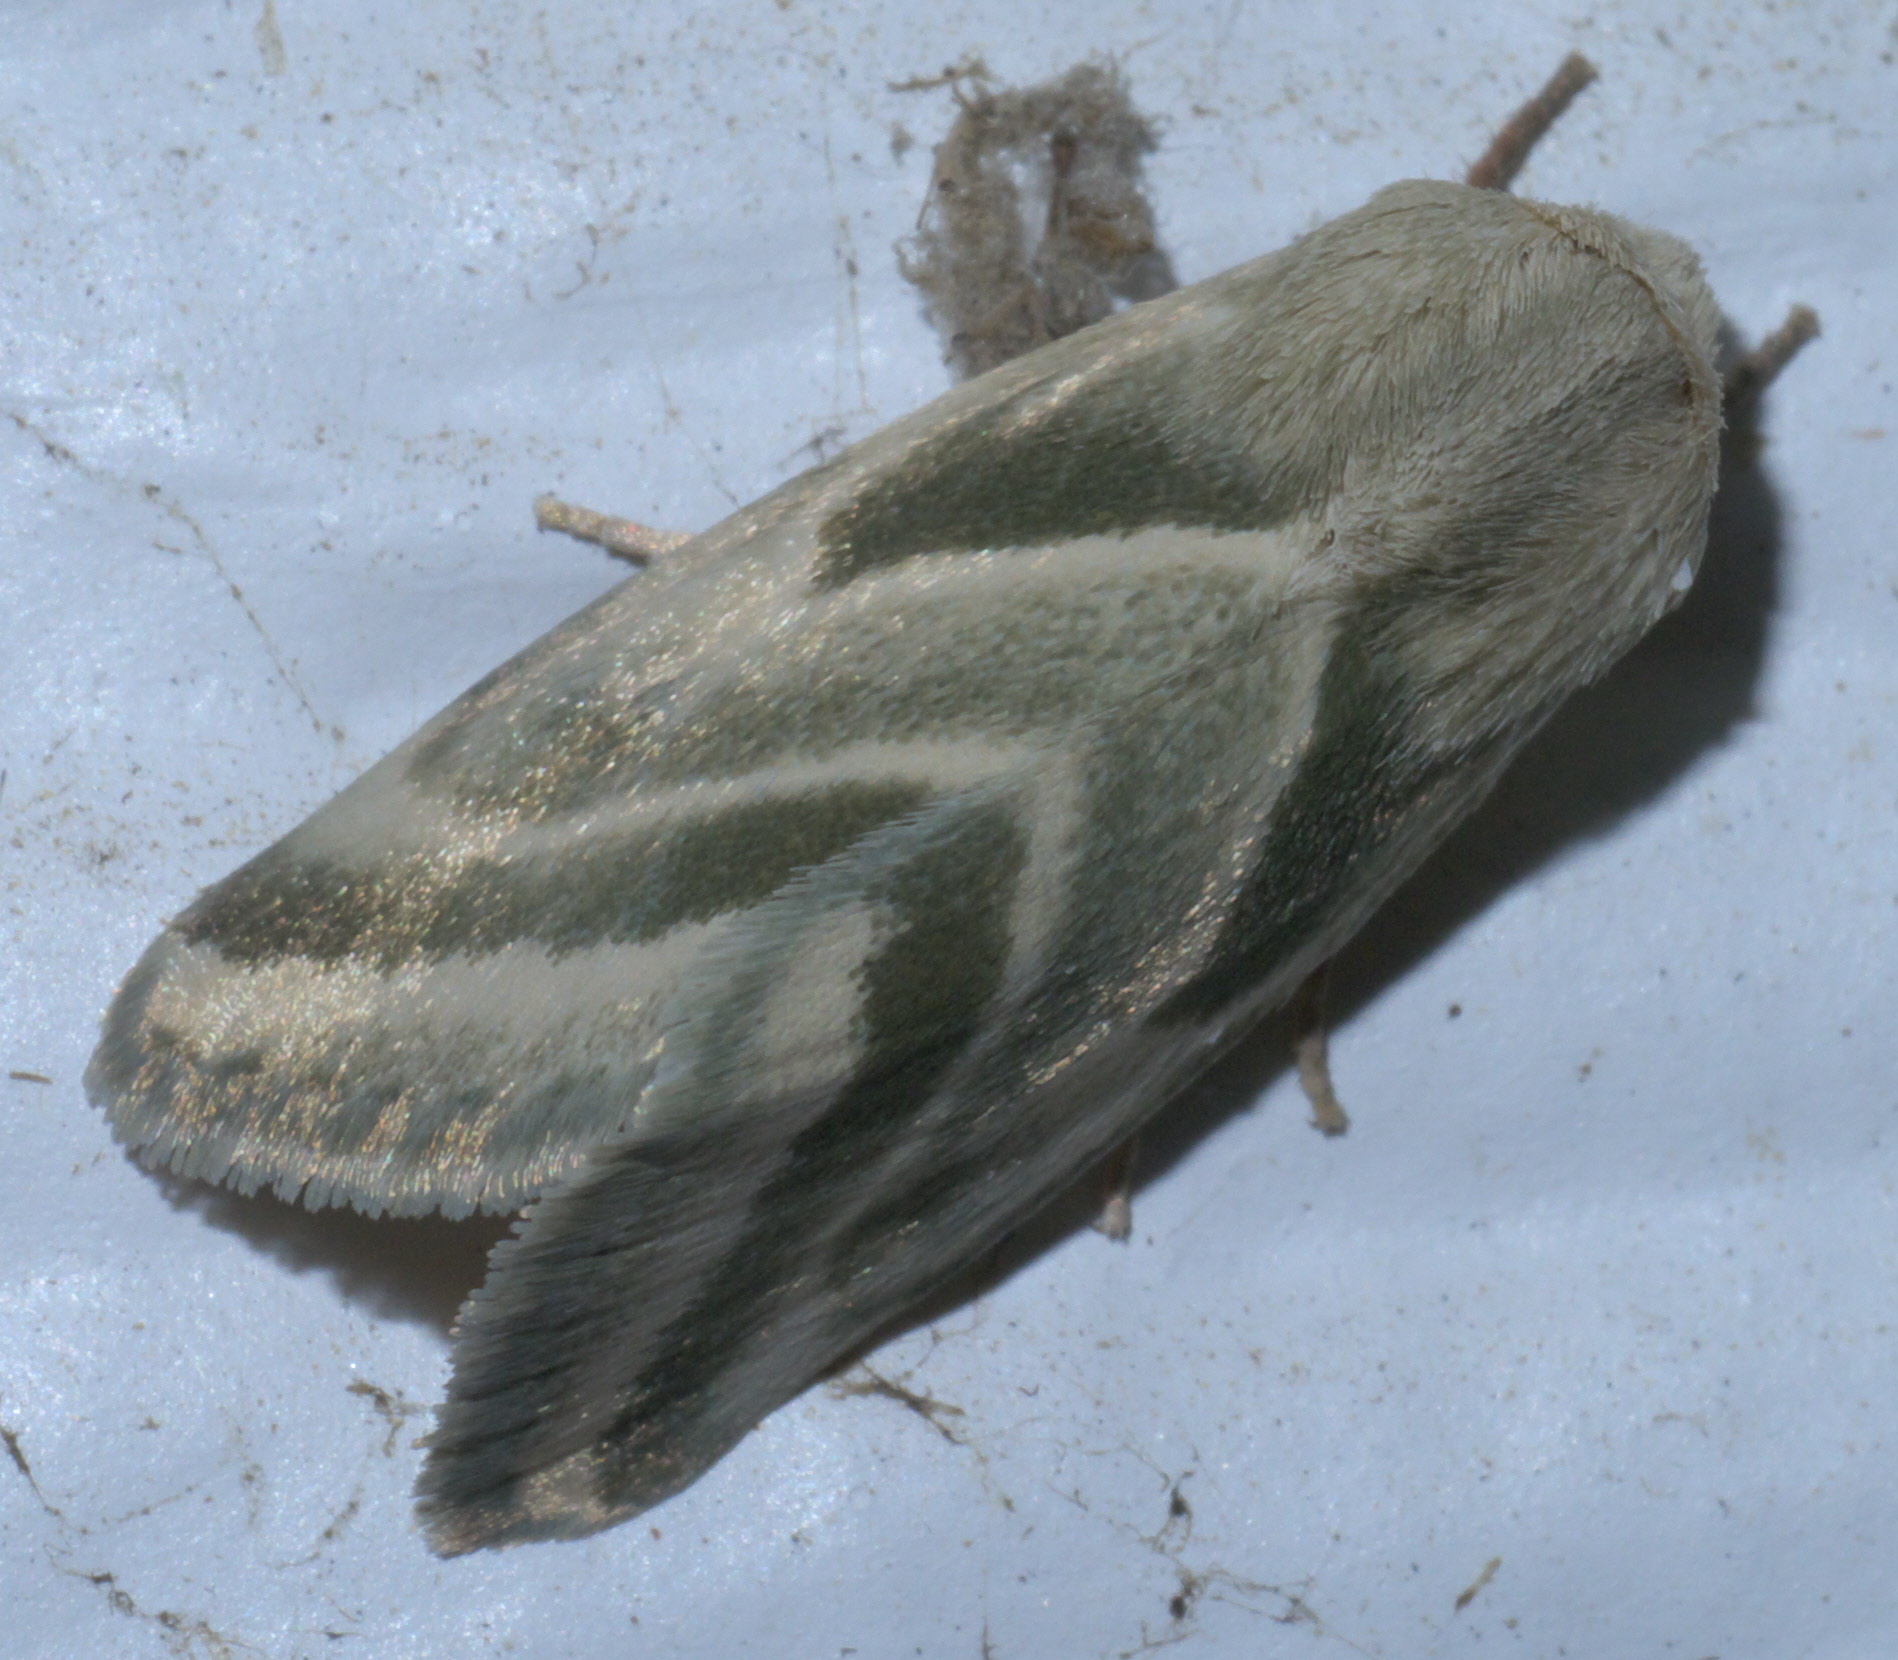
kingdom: Animalia
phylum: Arthropoda
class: Insecta
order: Lepidoptera
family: Noctuidae
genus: Schinia
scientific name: Schinia trifascia
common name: Three-lined flower moth
